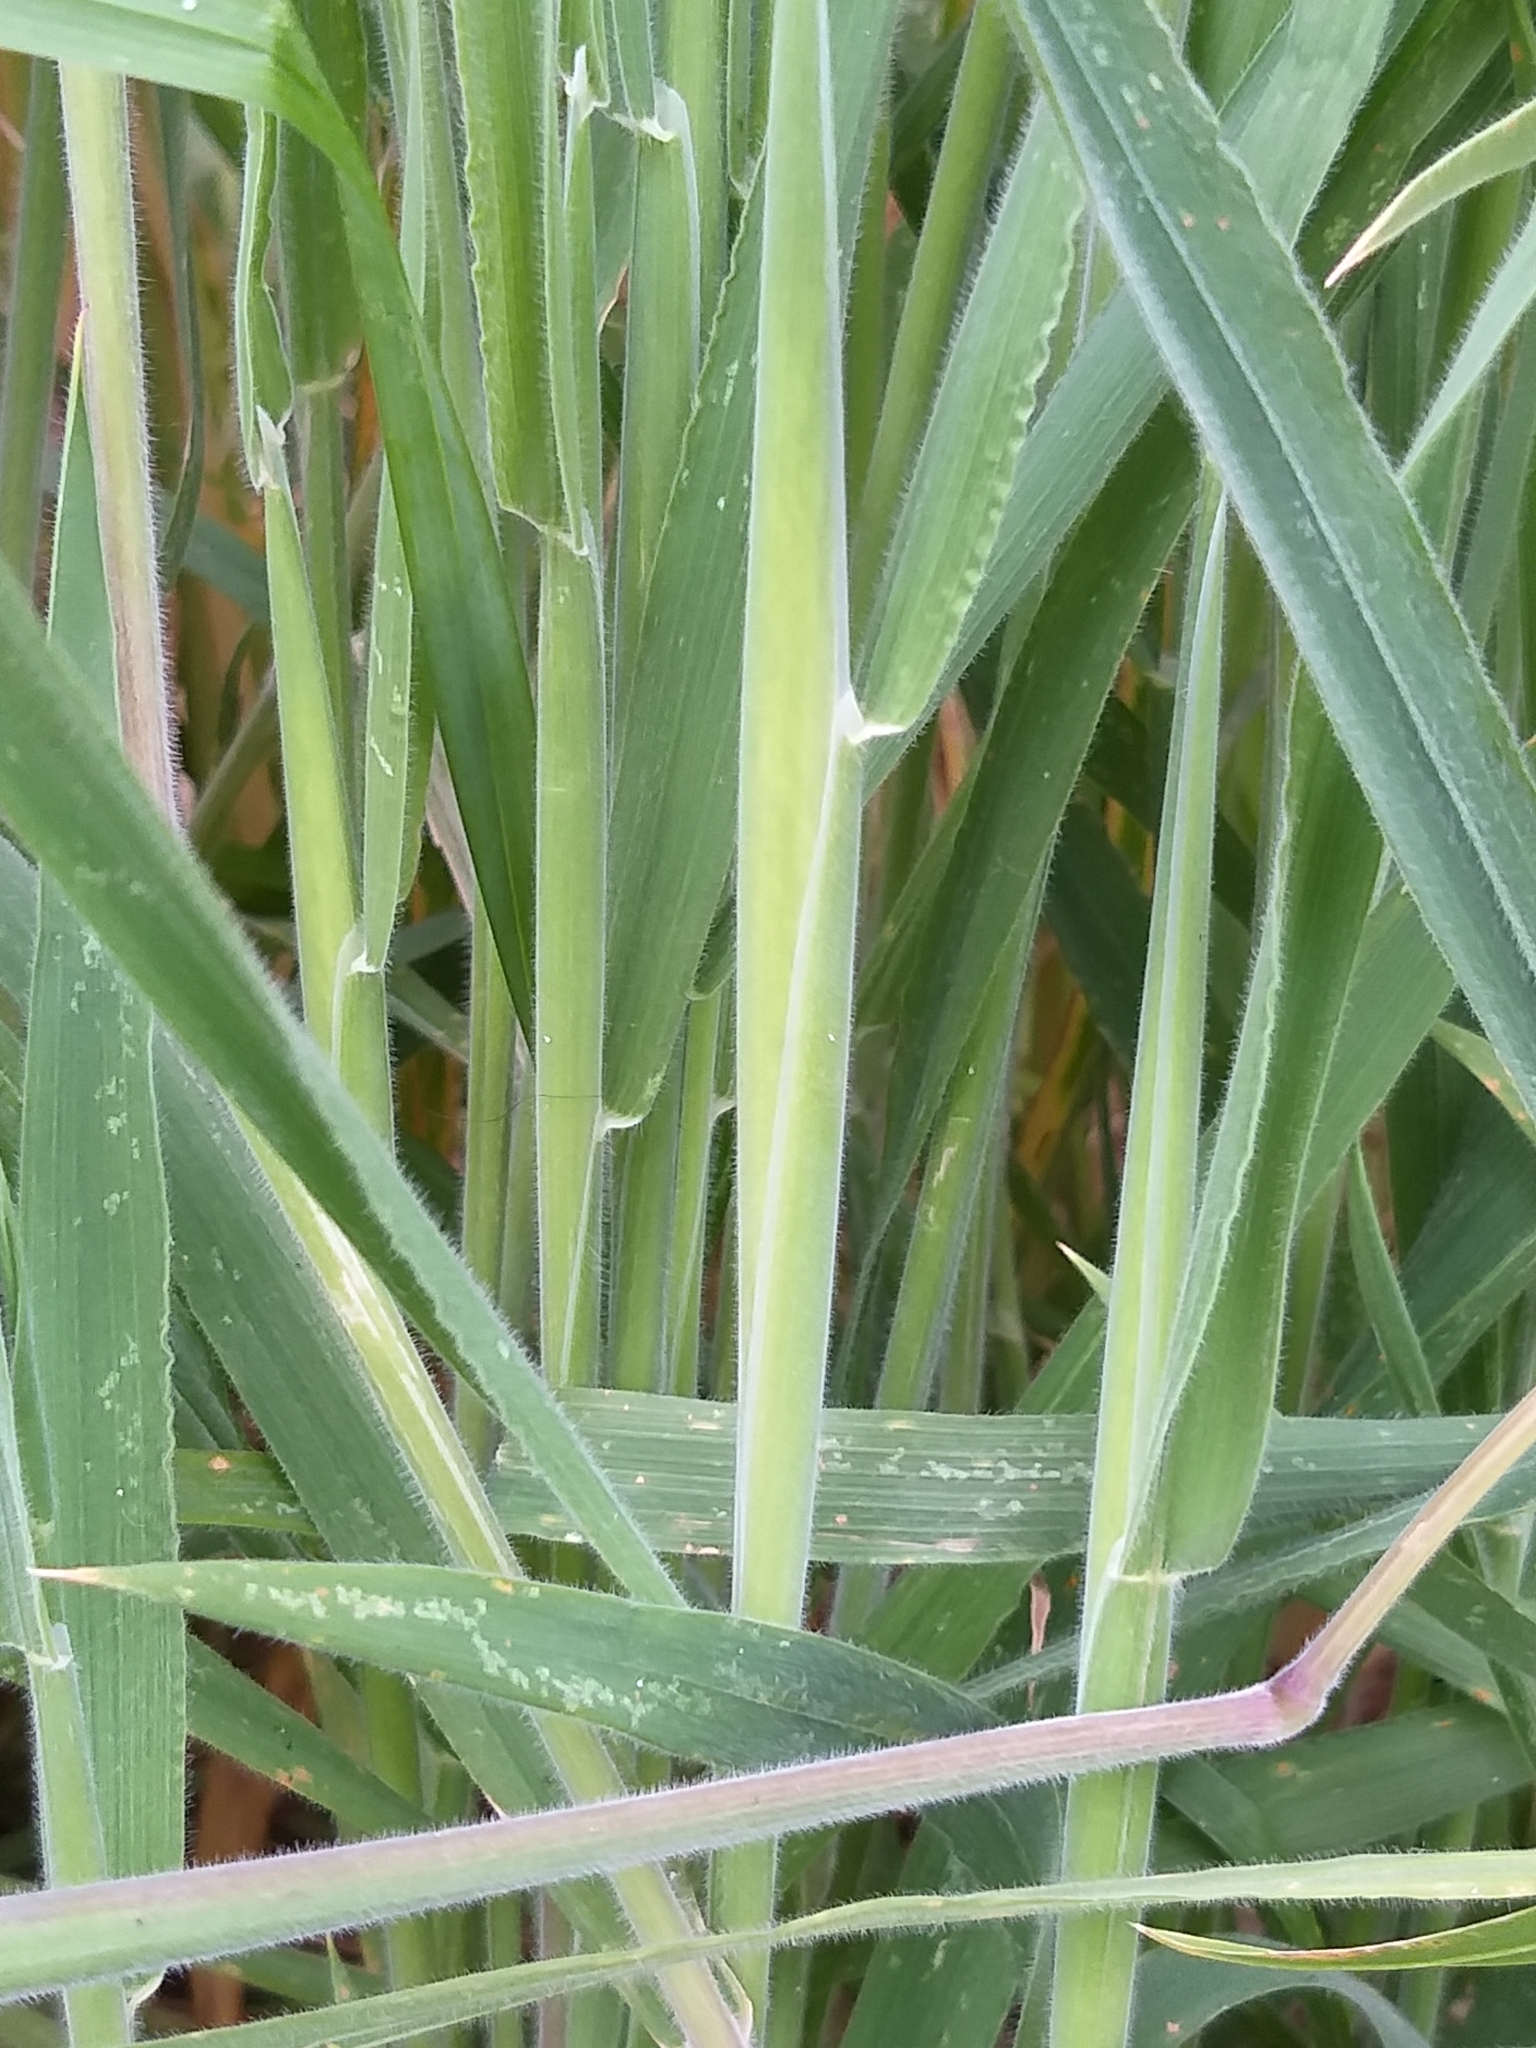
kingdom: Plantae
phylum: Tracheophyta
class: Liliopsida
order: Poales
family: Poaceae
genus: Holcus
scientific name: Holcus lanatus
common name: Yorkshire-fog
